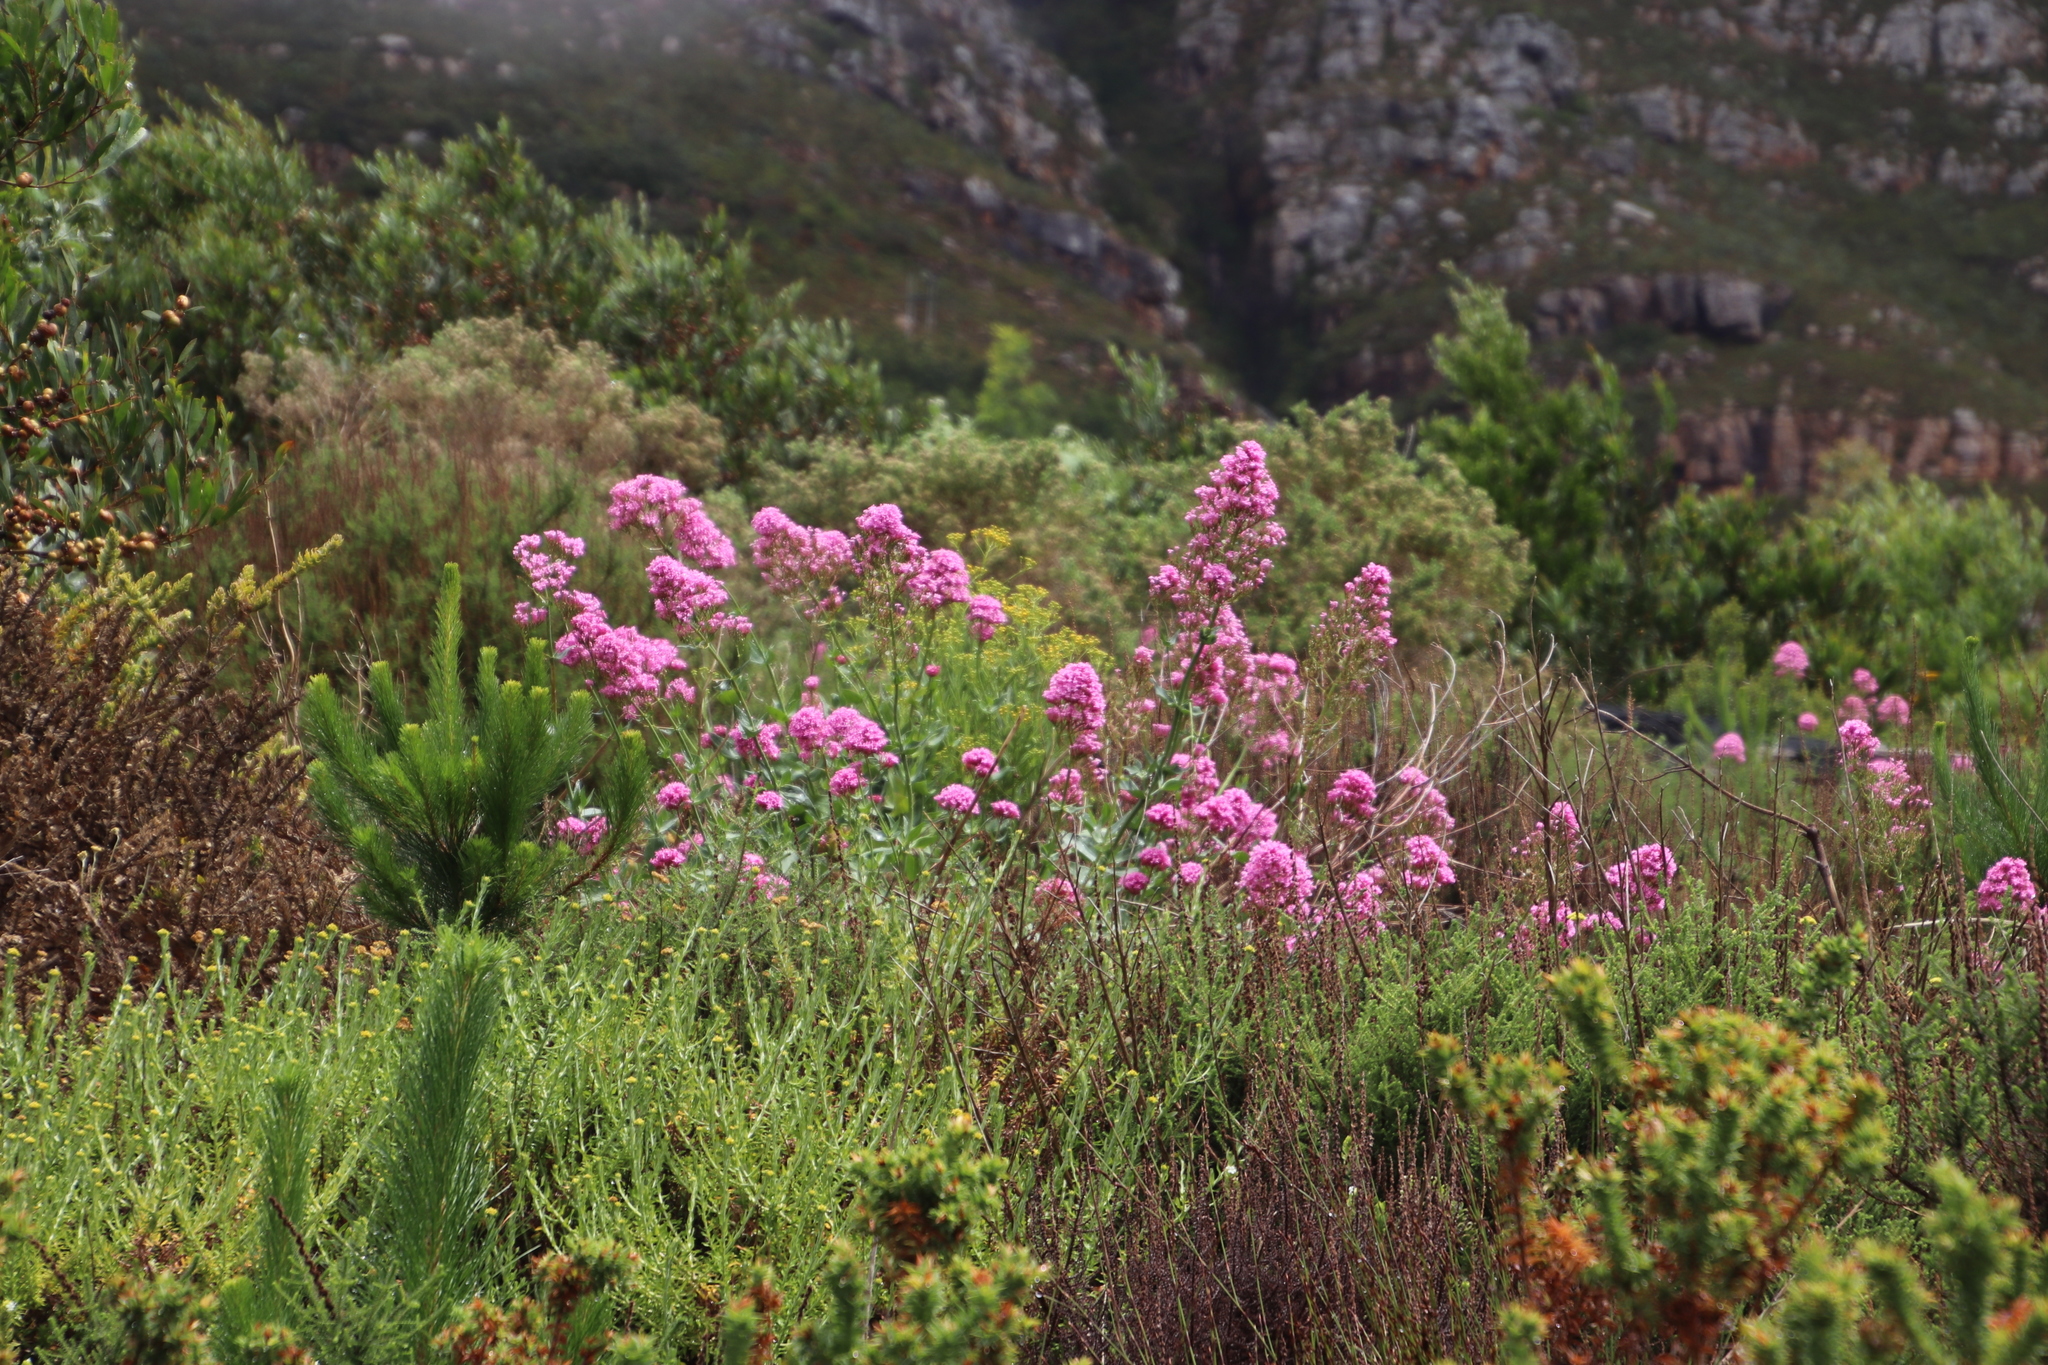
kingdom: Plantae
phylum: Tracheophyta
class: Magnoliopsida
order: Dipsacales
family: Caprifoliaceae
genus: Centranthus
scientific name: Centranthus ruber
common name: Red valerian
